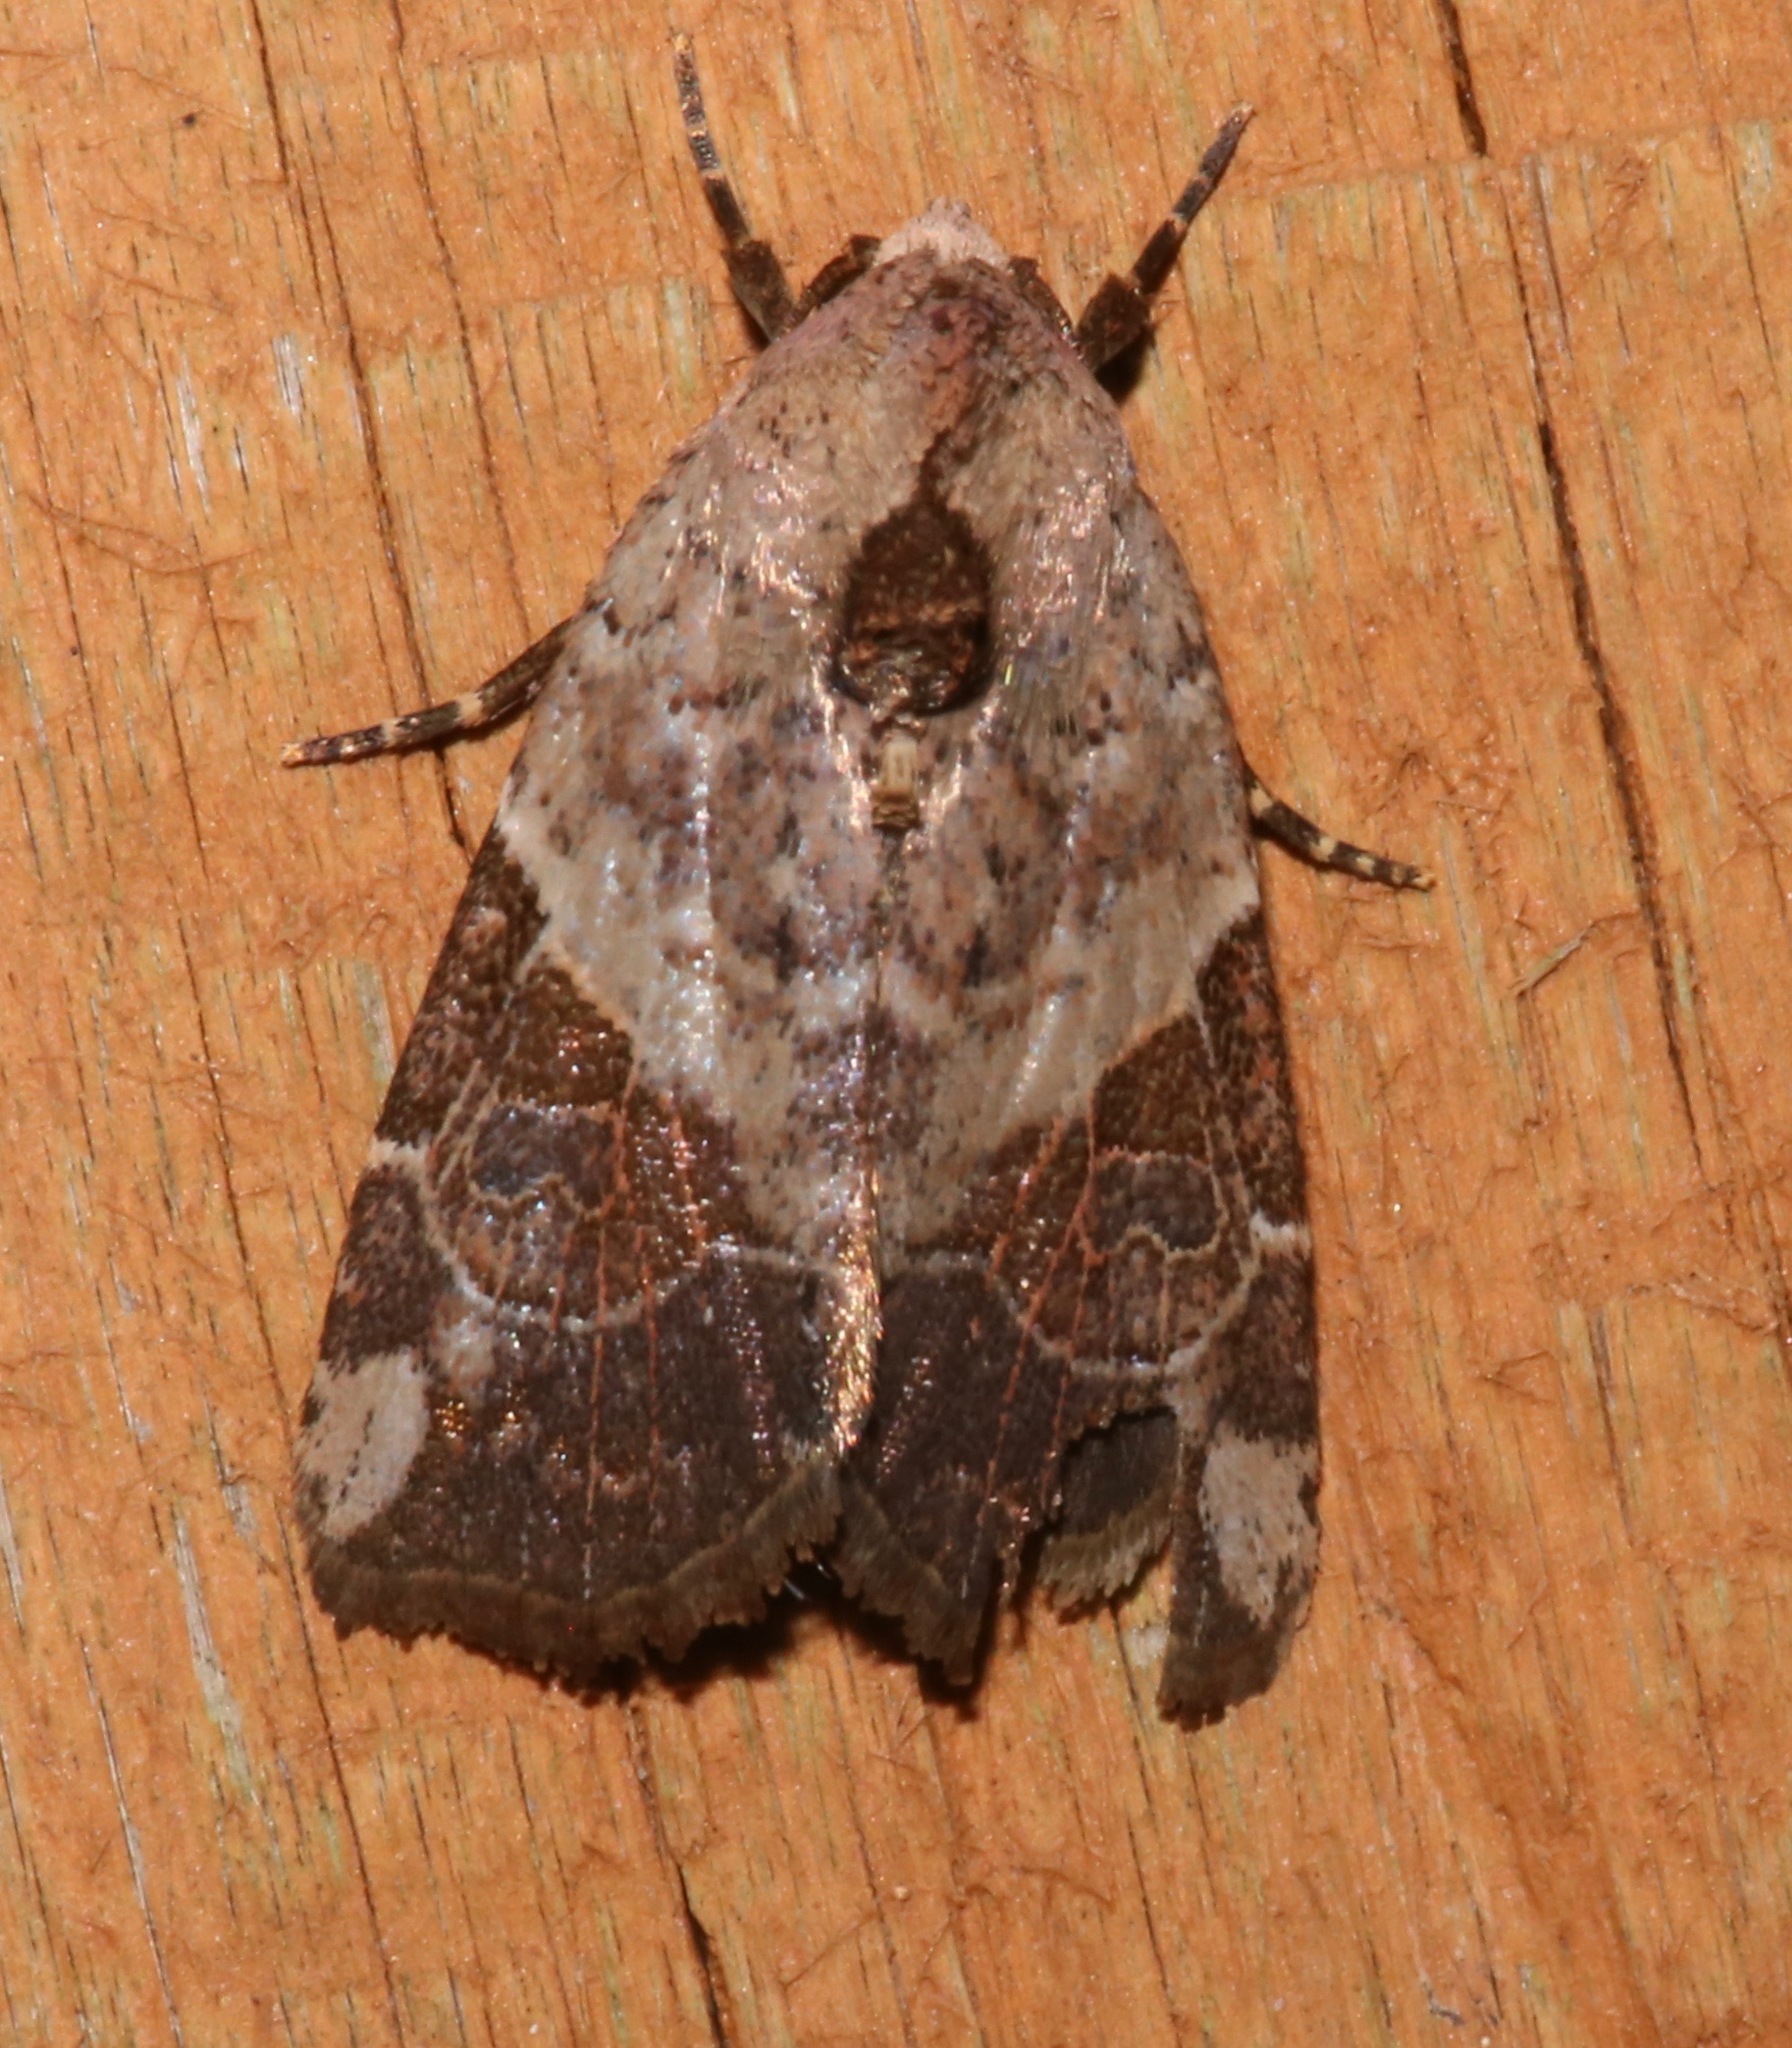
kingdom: Animalia
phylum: Arthropoda
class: Insecta
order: Lepidoptera
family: Noctuidae
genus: Gonodes
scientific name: Gonodes liquida
